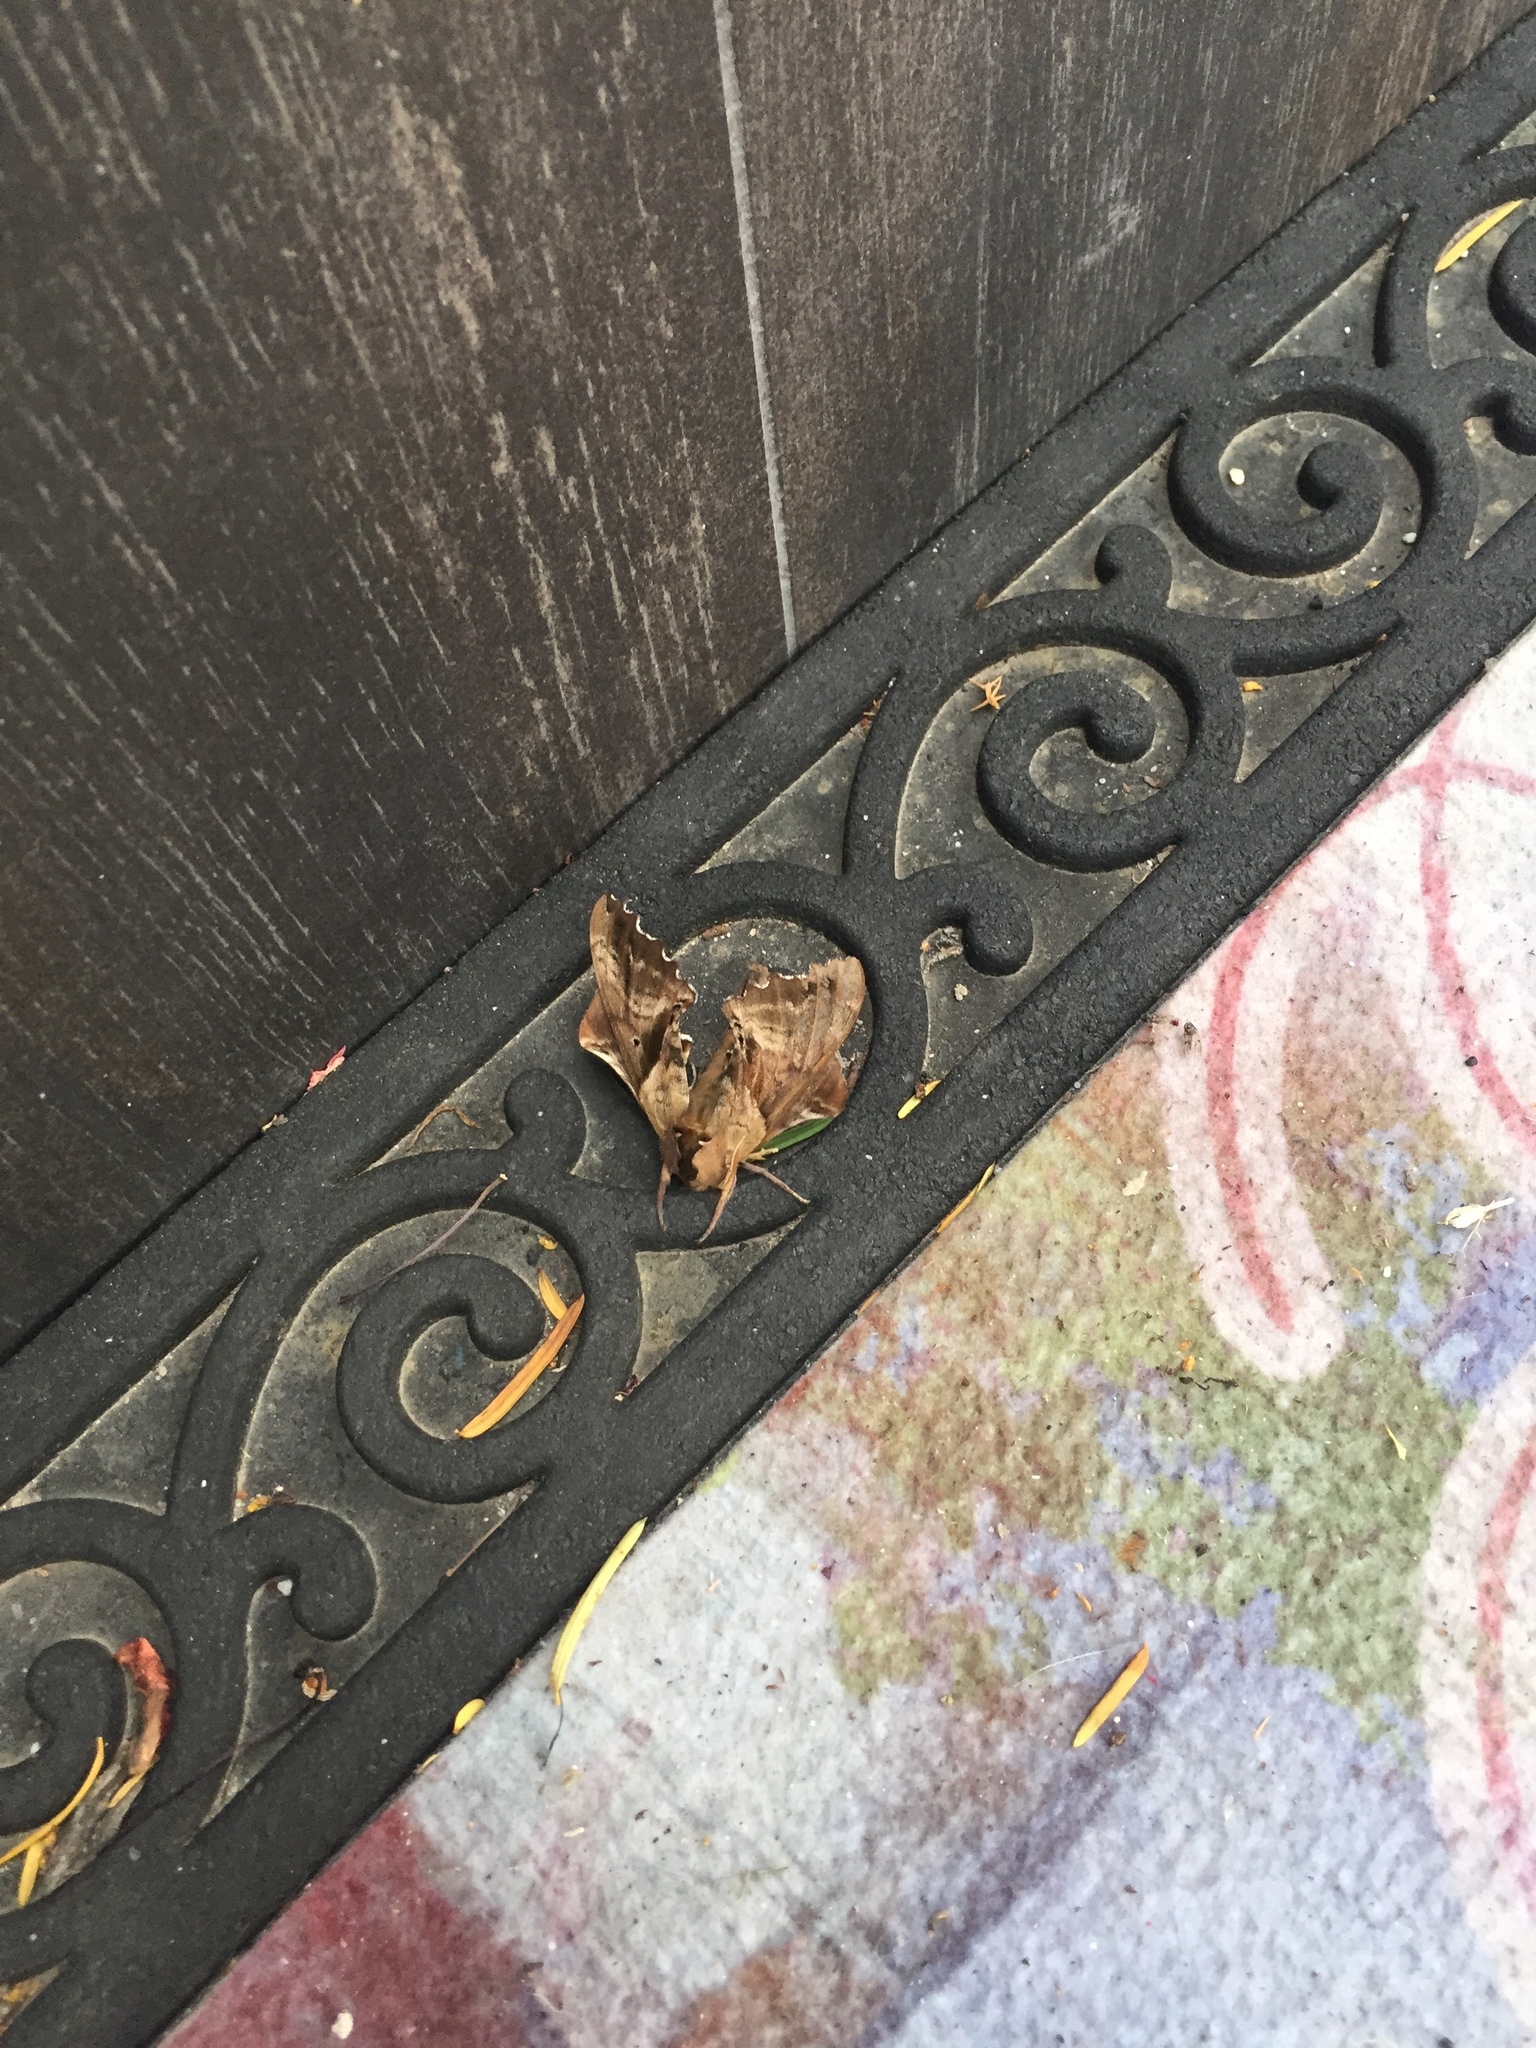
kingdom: Animalia
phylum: Arthropoda
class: Insecta
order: Lepidoptera
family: Sphingidae
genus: Paonias
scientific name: Paonias excaecata
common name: Blind-eyed sphinx
